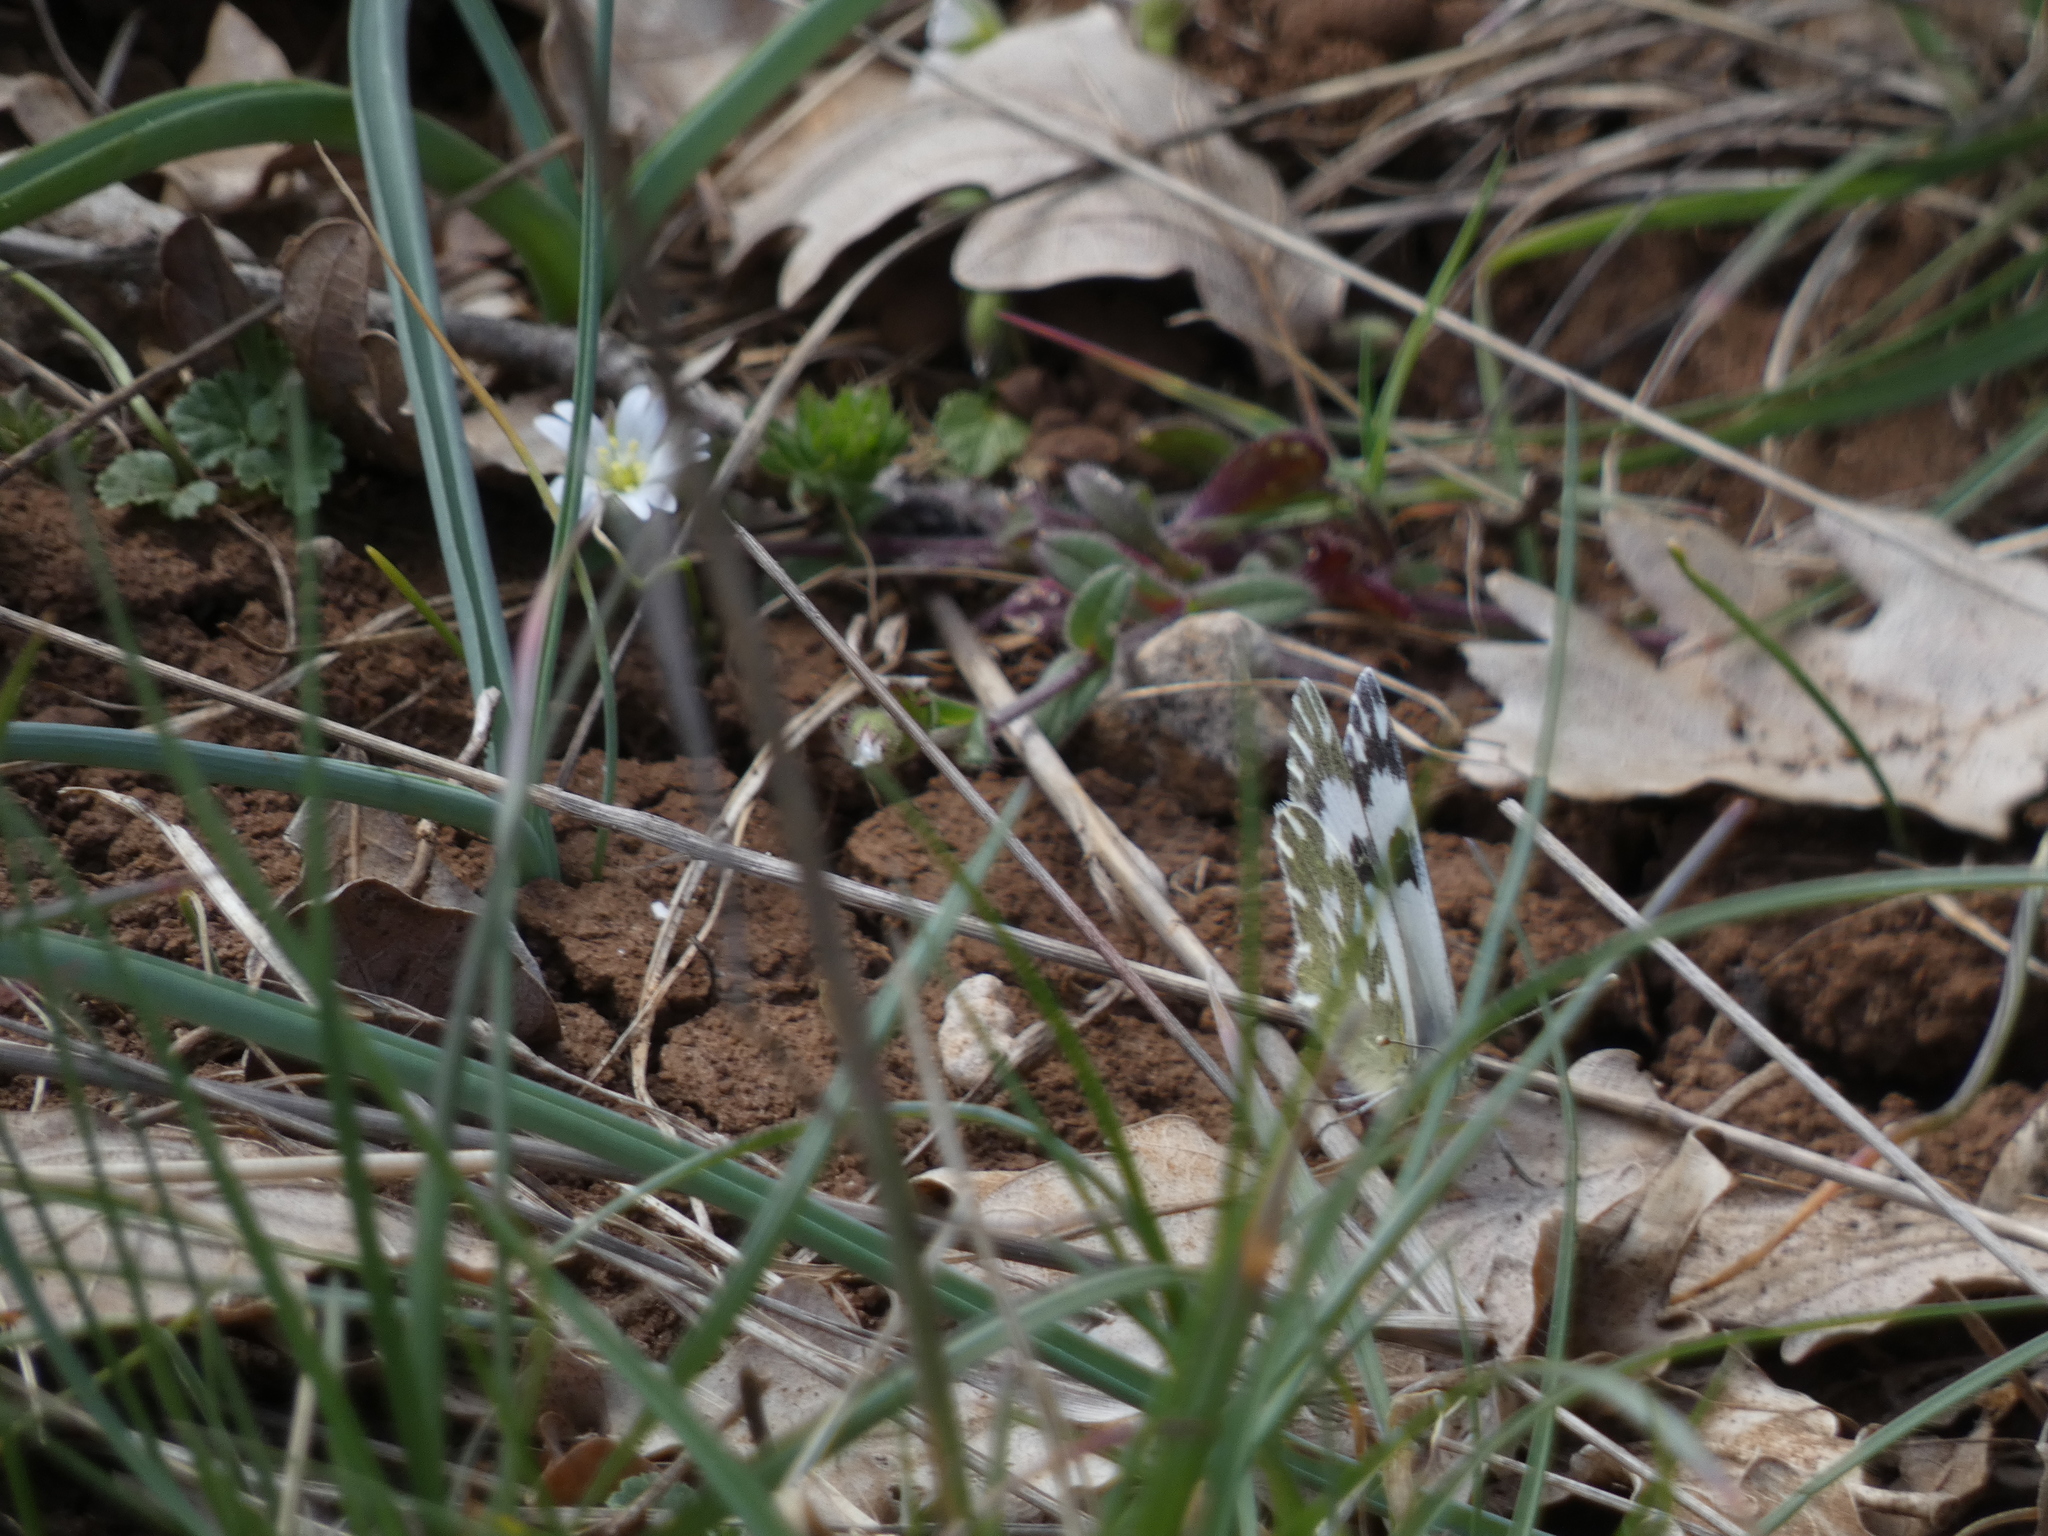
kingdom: Animalia
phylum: Arthropoda
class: Insecta
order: Lepidoptera
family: Pieridae
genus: Pontia
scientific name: Pontia daplidice
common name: Bath white
